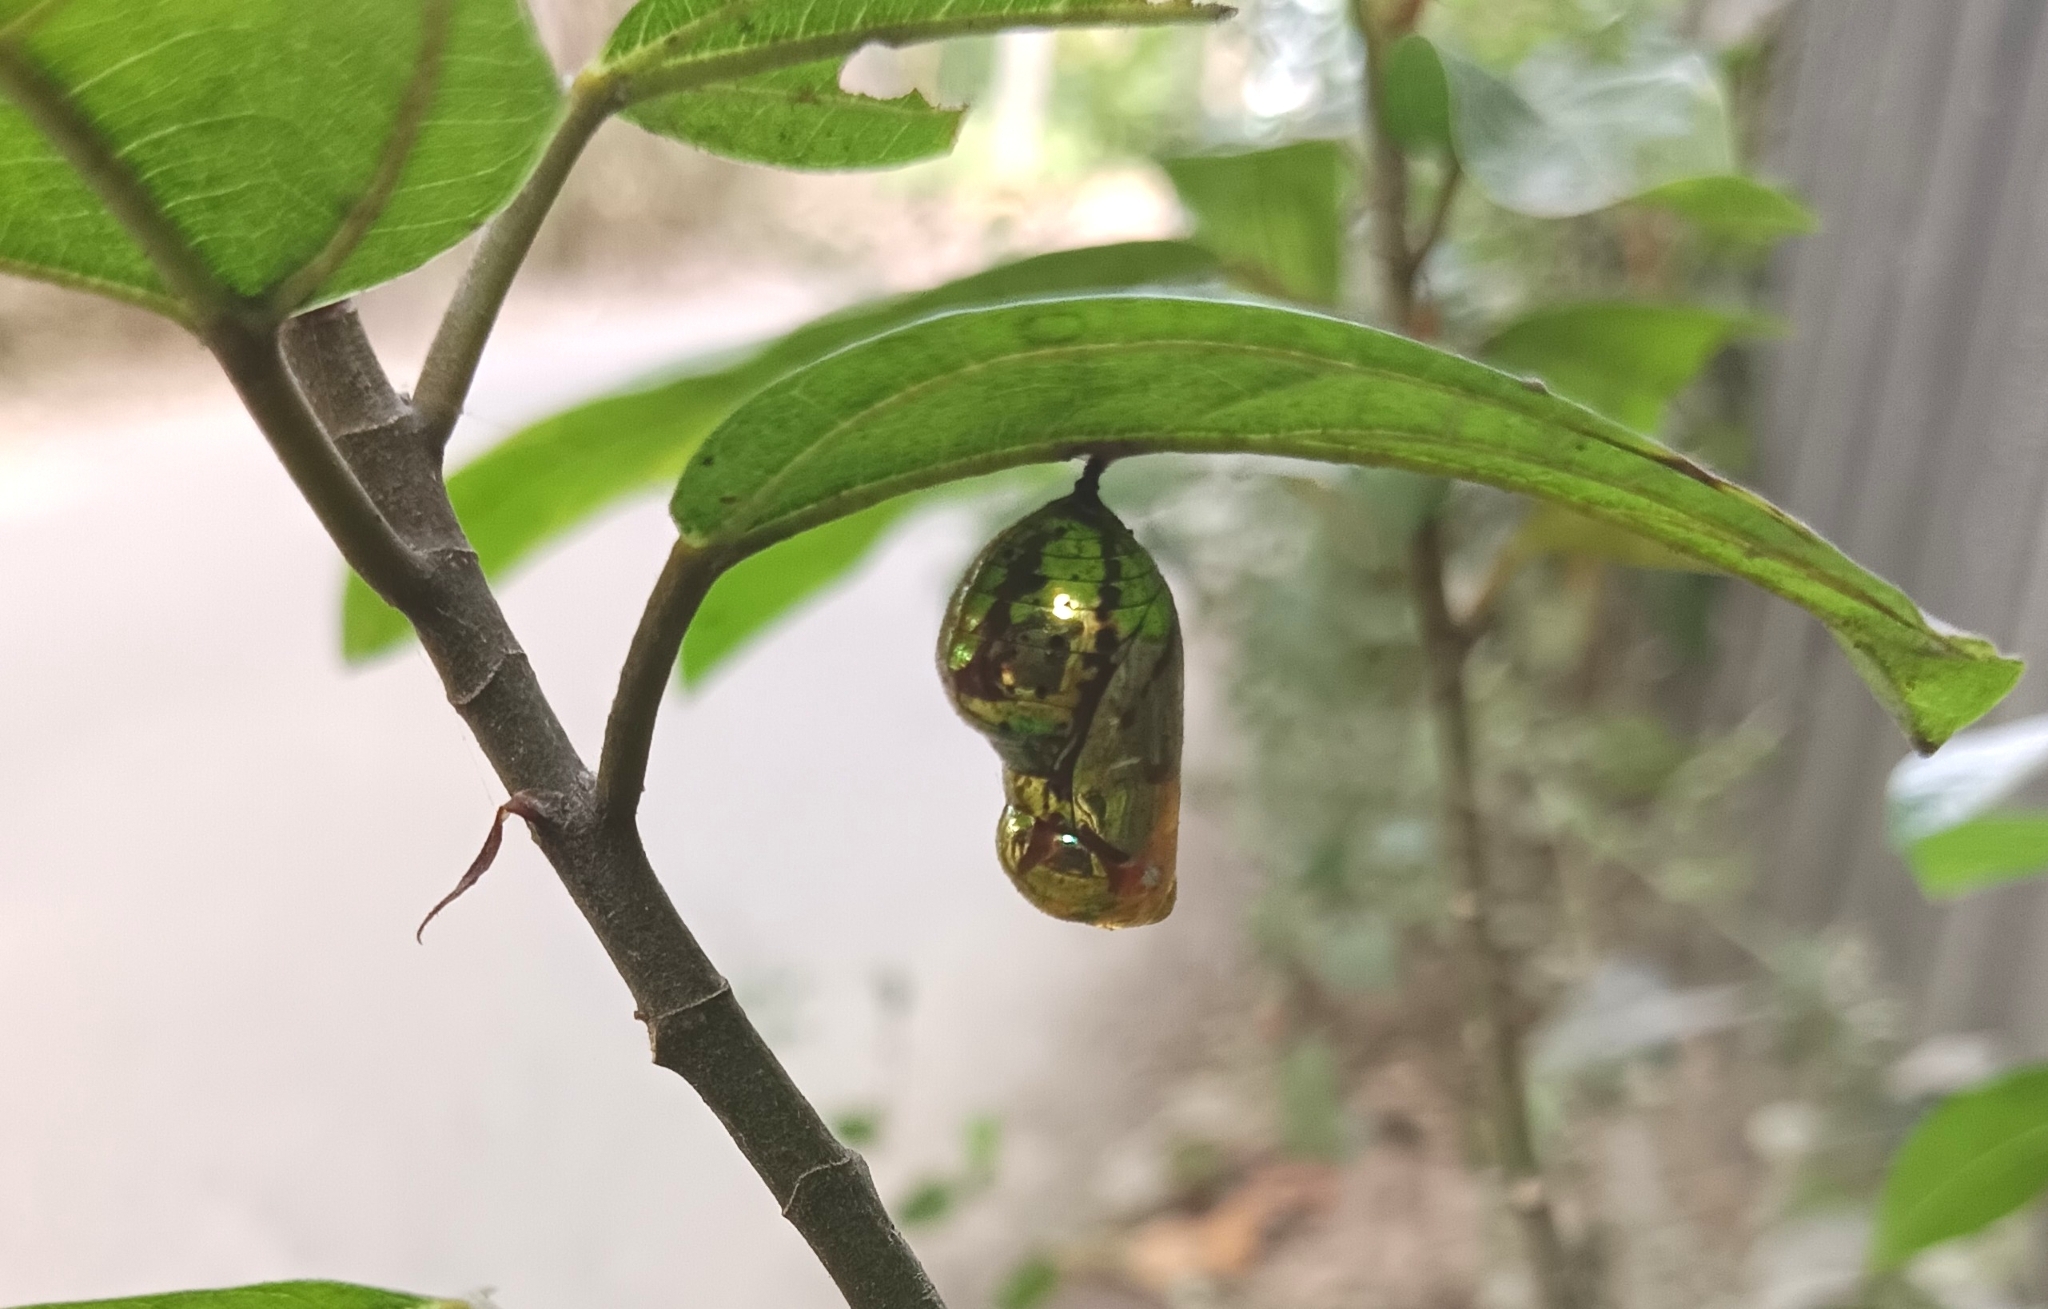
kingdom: Animalia
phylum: Arthropoda
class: Insecta
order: Lepidoptera
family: Nymphalidae
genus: Euploea
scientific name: Euploea core
